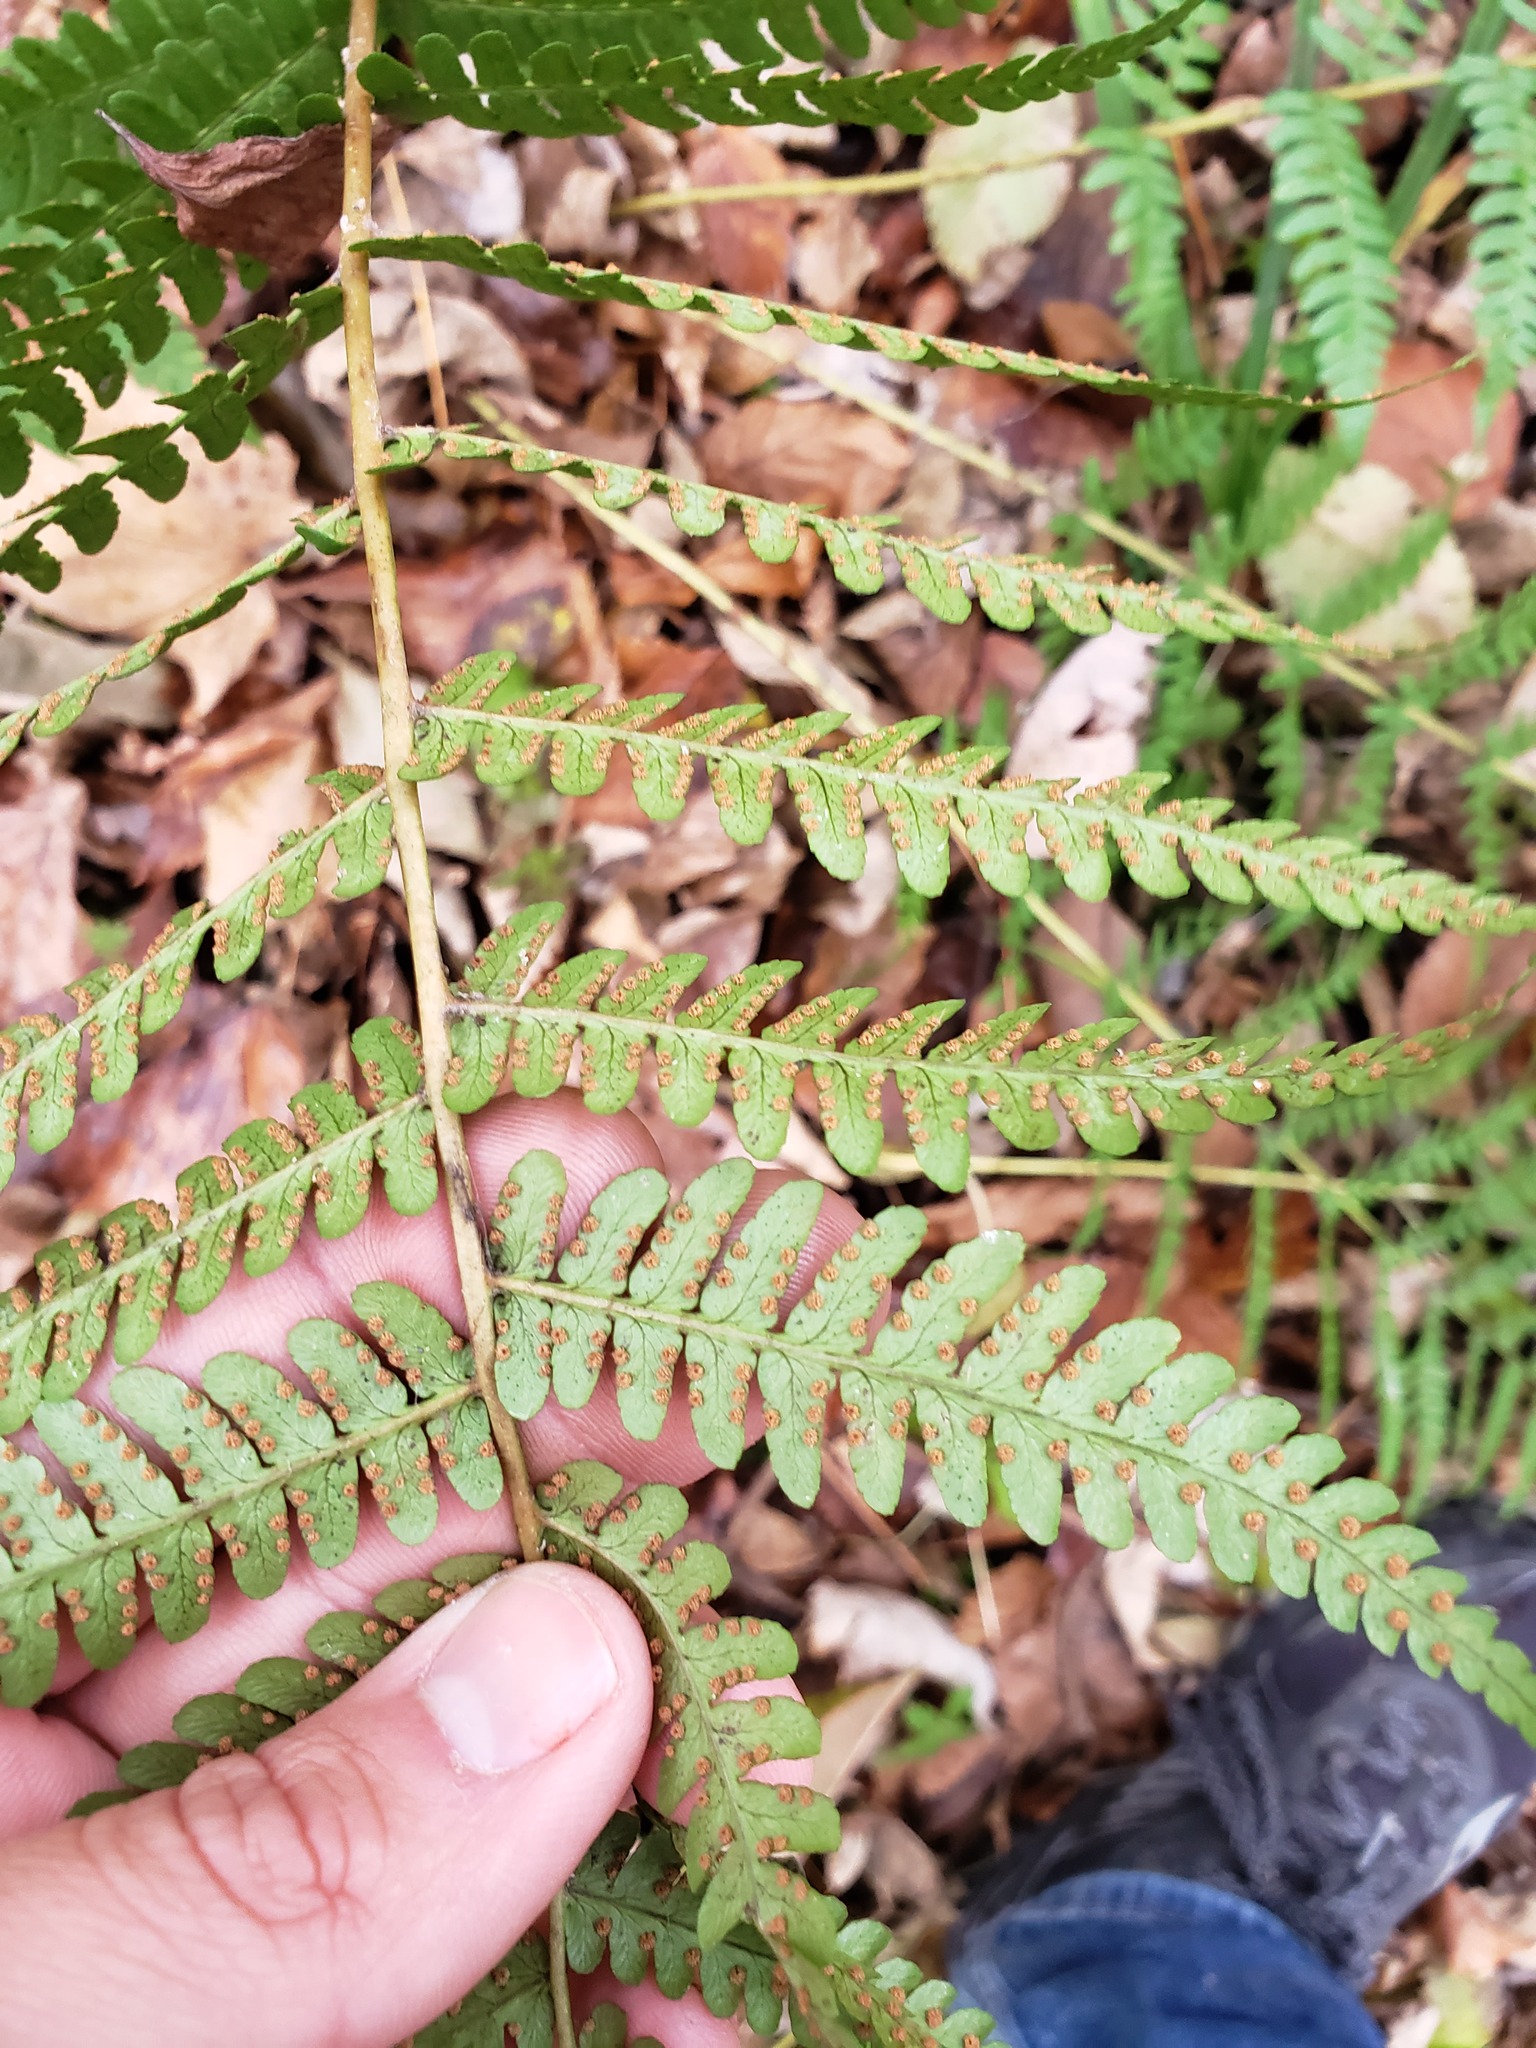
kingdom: Plantae
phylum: Tracheophyta
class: Polypodiopsida
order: Polypodiales
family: Dryopteridaceae
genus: Dryopteris
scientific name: Dryopteris marginalis
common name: Marginal wood fern
